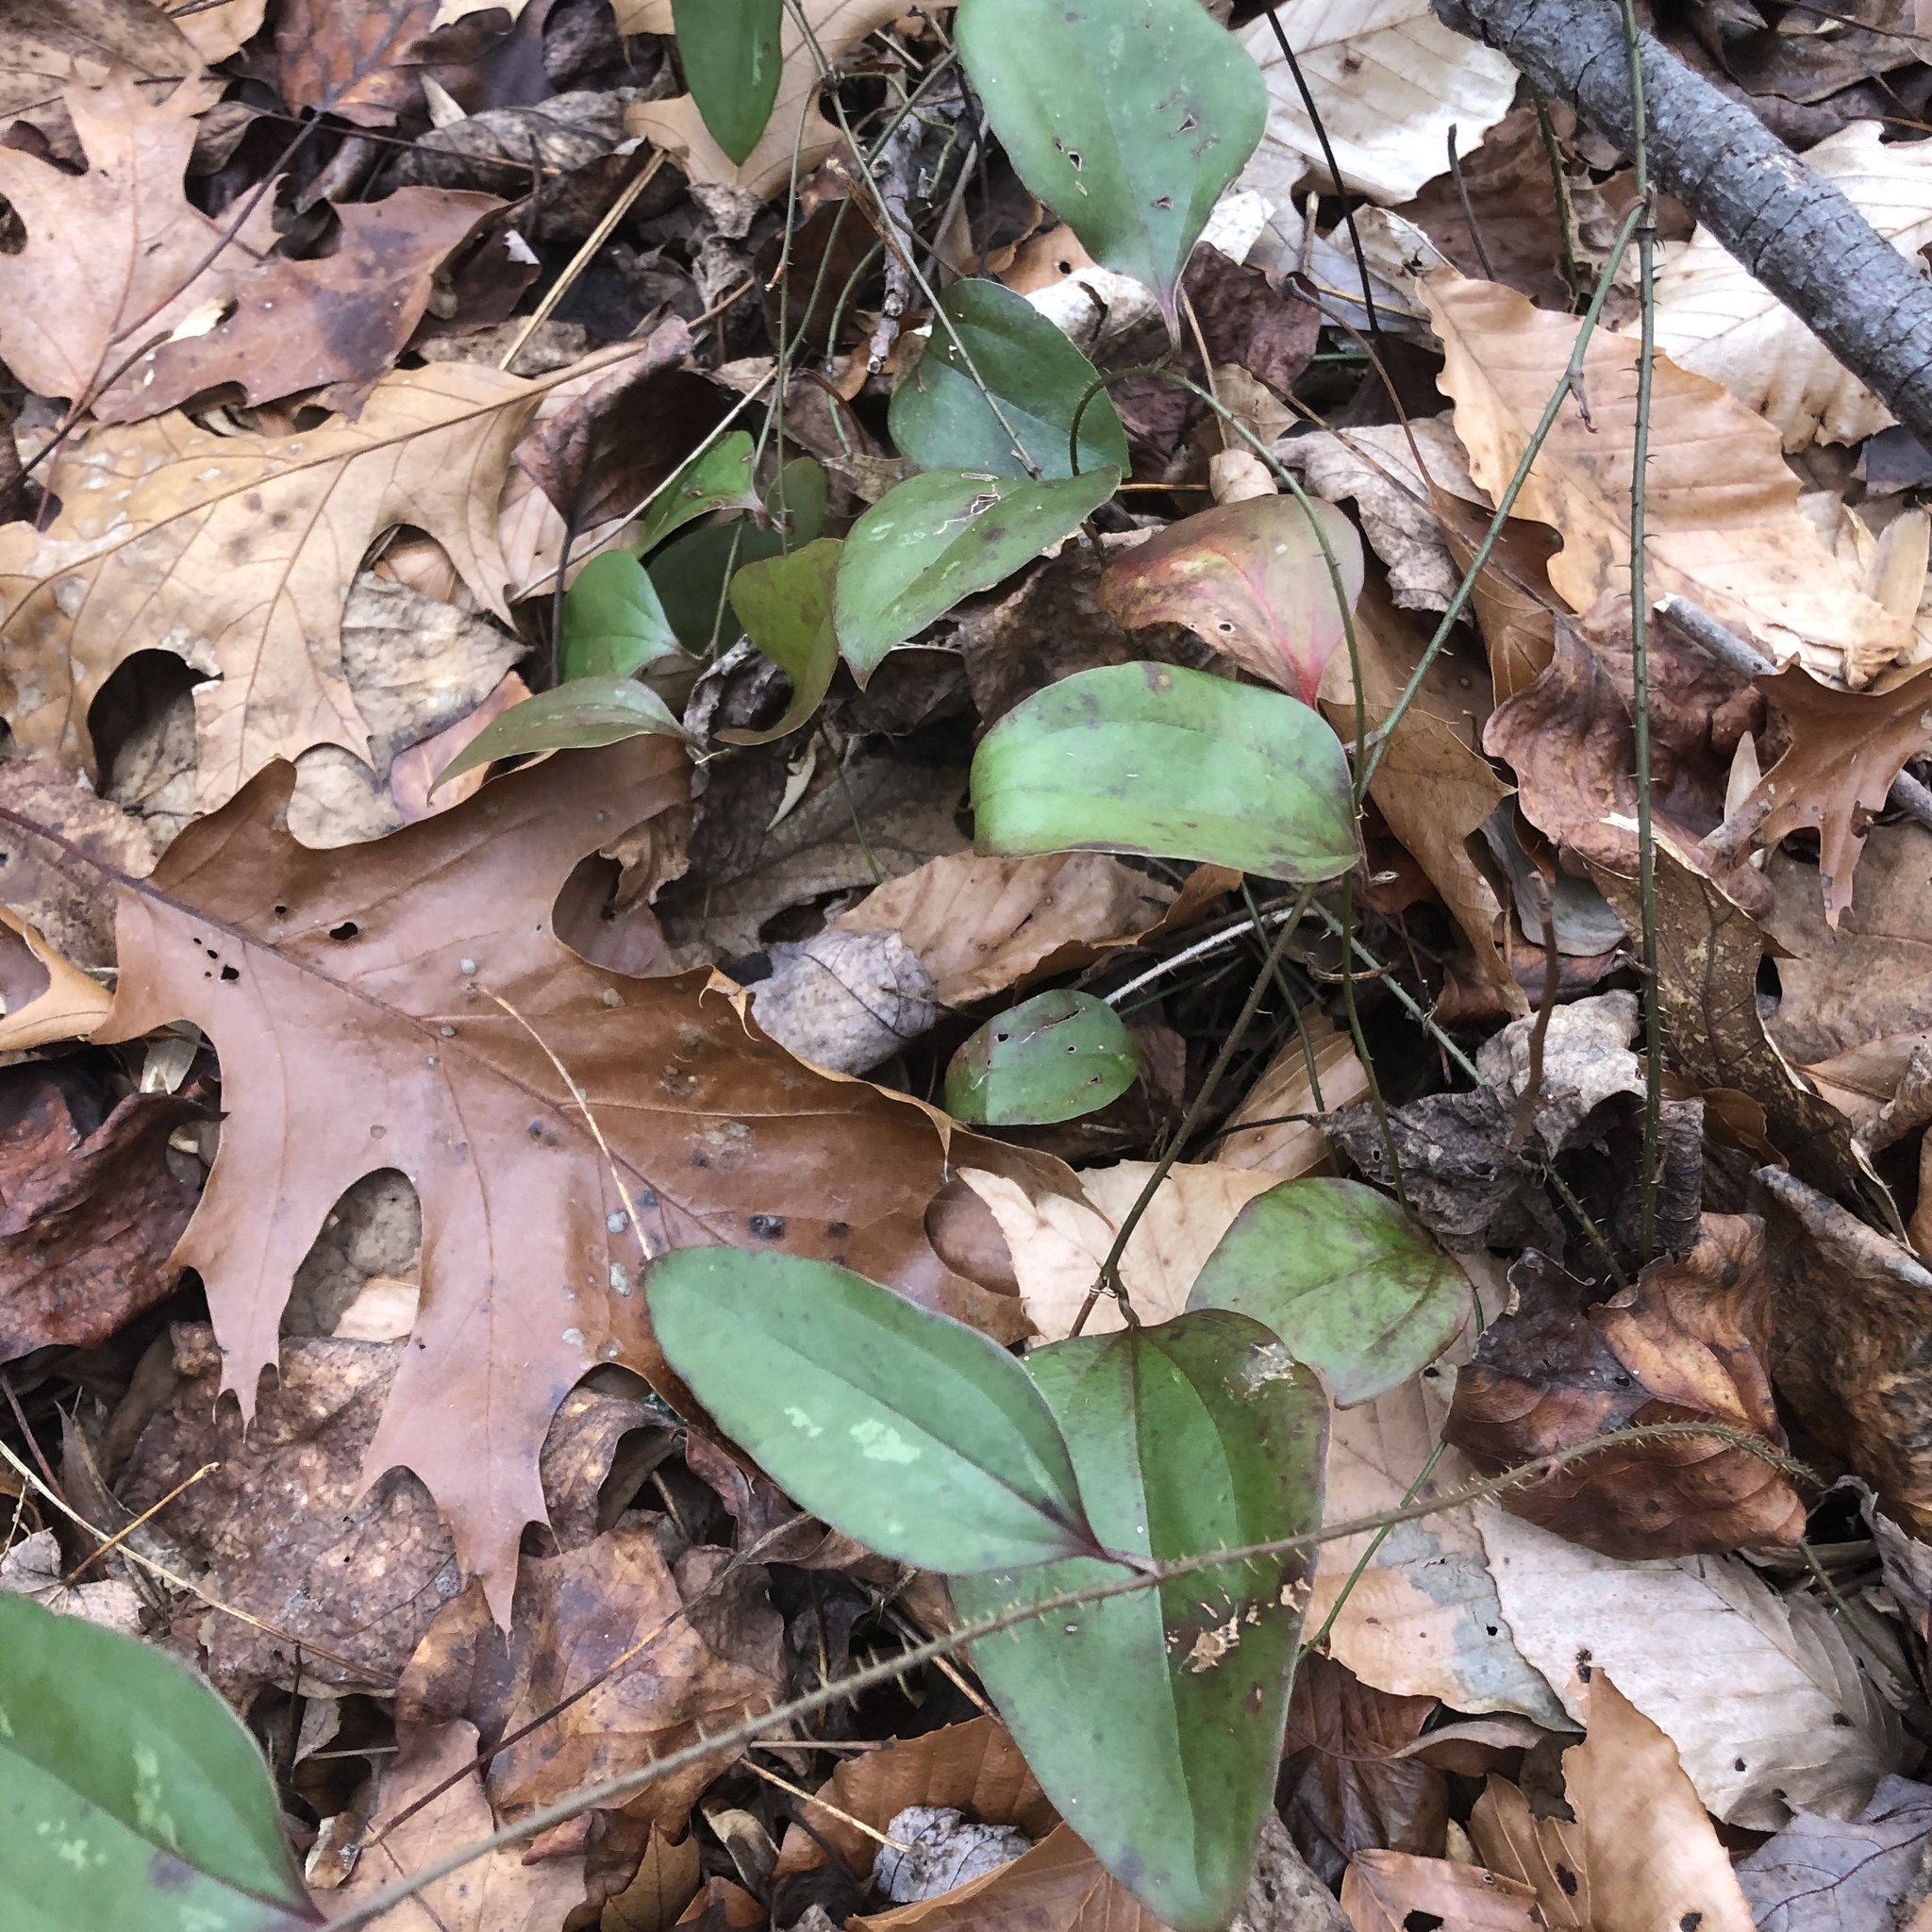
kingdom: Plantae
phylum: Tracheophyta
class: Liliopsida
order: Liliales
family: Smilacaceae
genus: Smilax
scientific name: Smilax glauca
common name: Cat greenbrier
